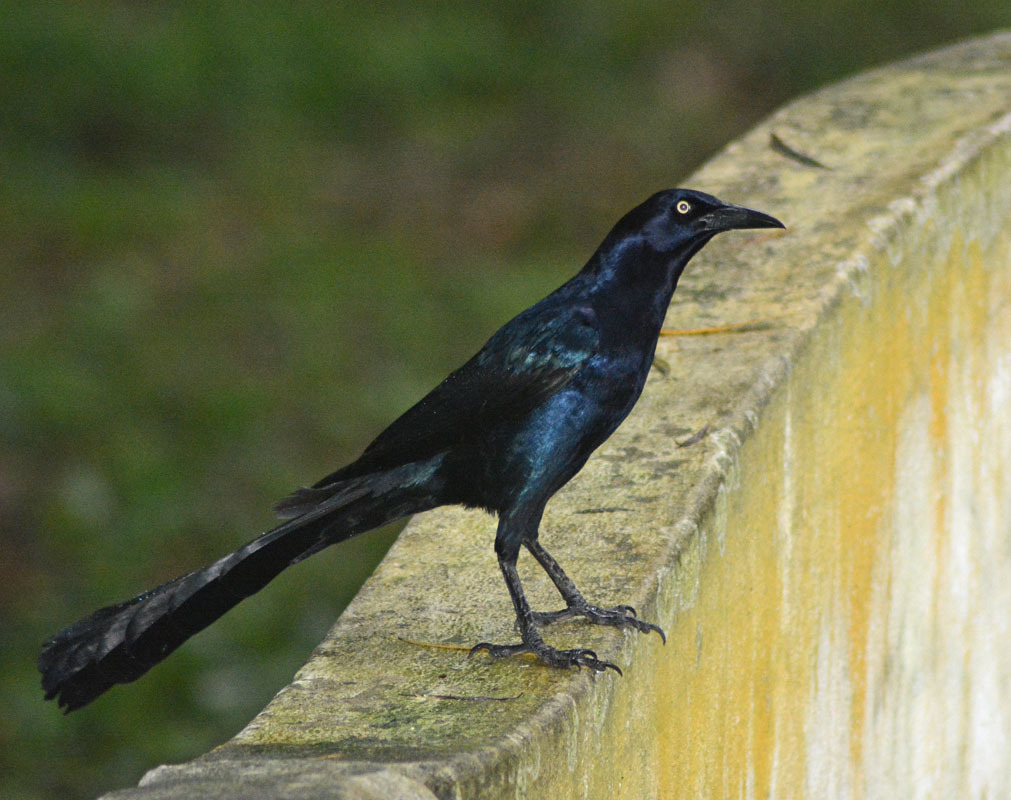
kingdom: Animalia
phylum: Chordata
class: Aves
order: Passeriformes
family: Icteridae
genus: Quiscalus
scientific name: Quiscalus mexicanus
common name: Great-tailed grackle
